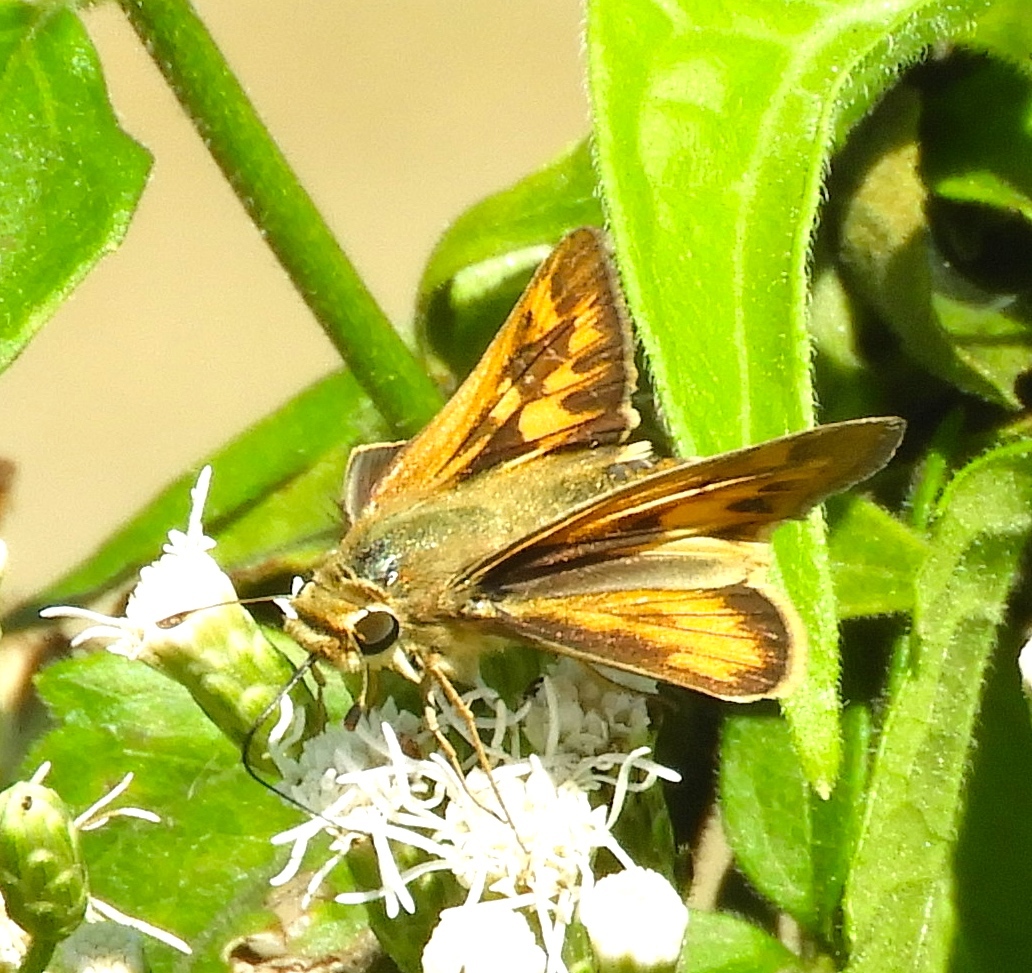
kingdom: Animalia
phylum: Arthropoda
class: Insecta
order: Lepidoptera
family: Hesperiidae
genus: Hylephila
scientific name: Hylephila phyleus
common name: Fiery skipper
